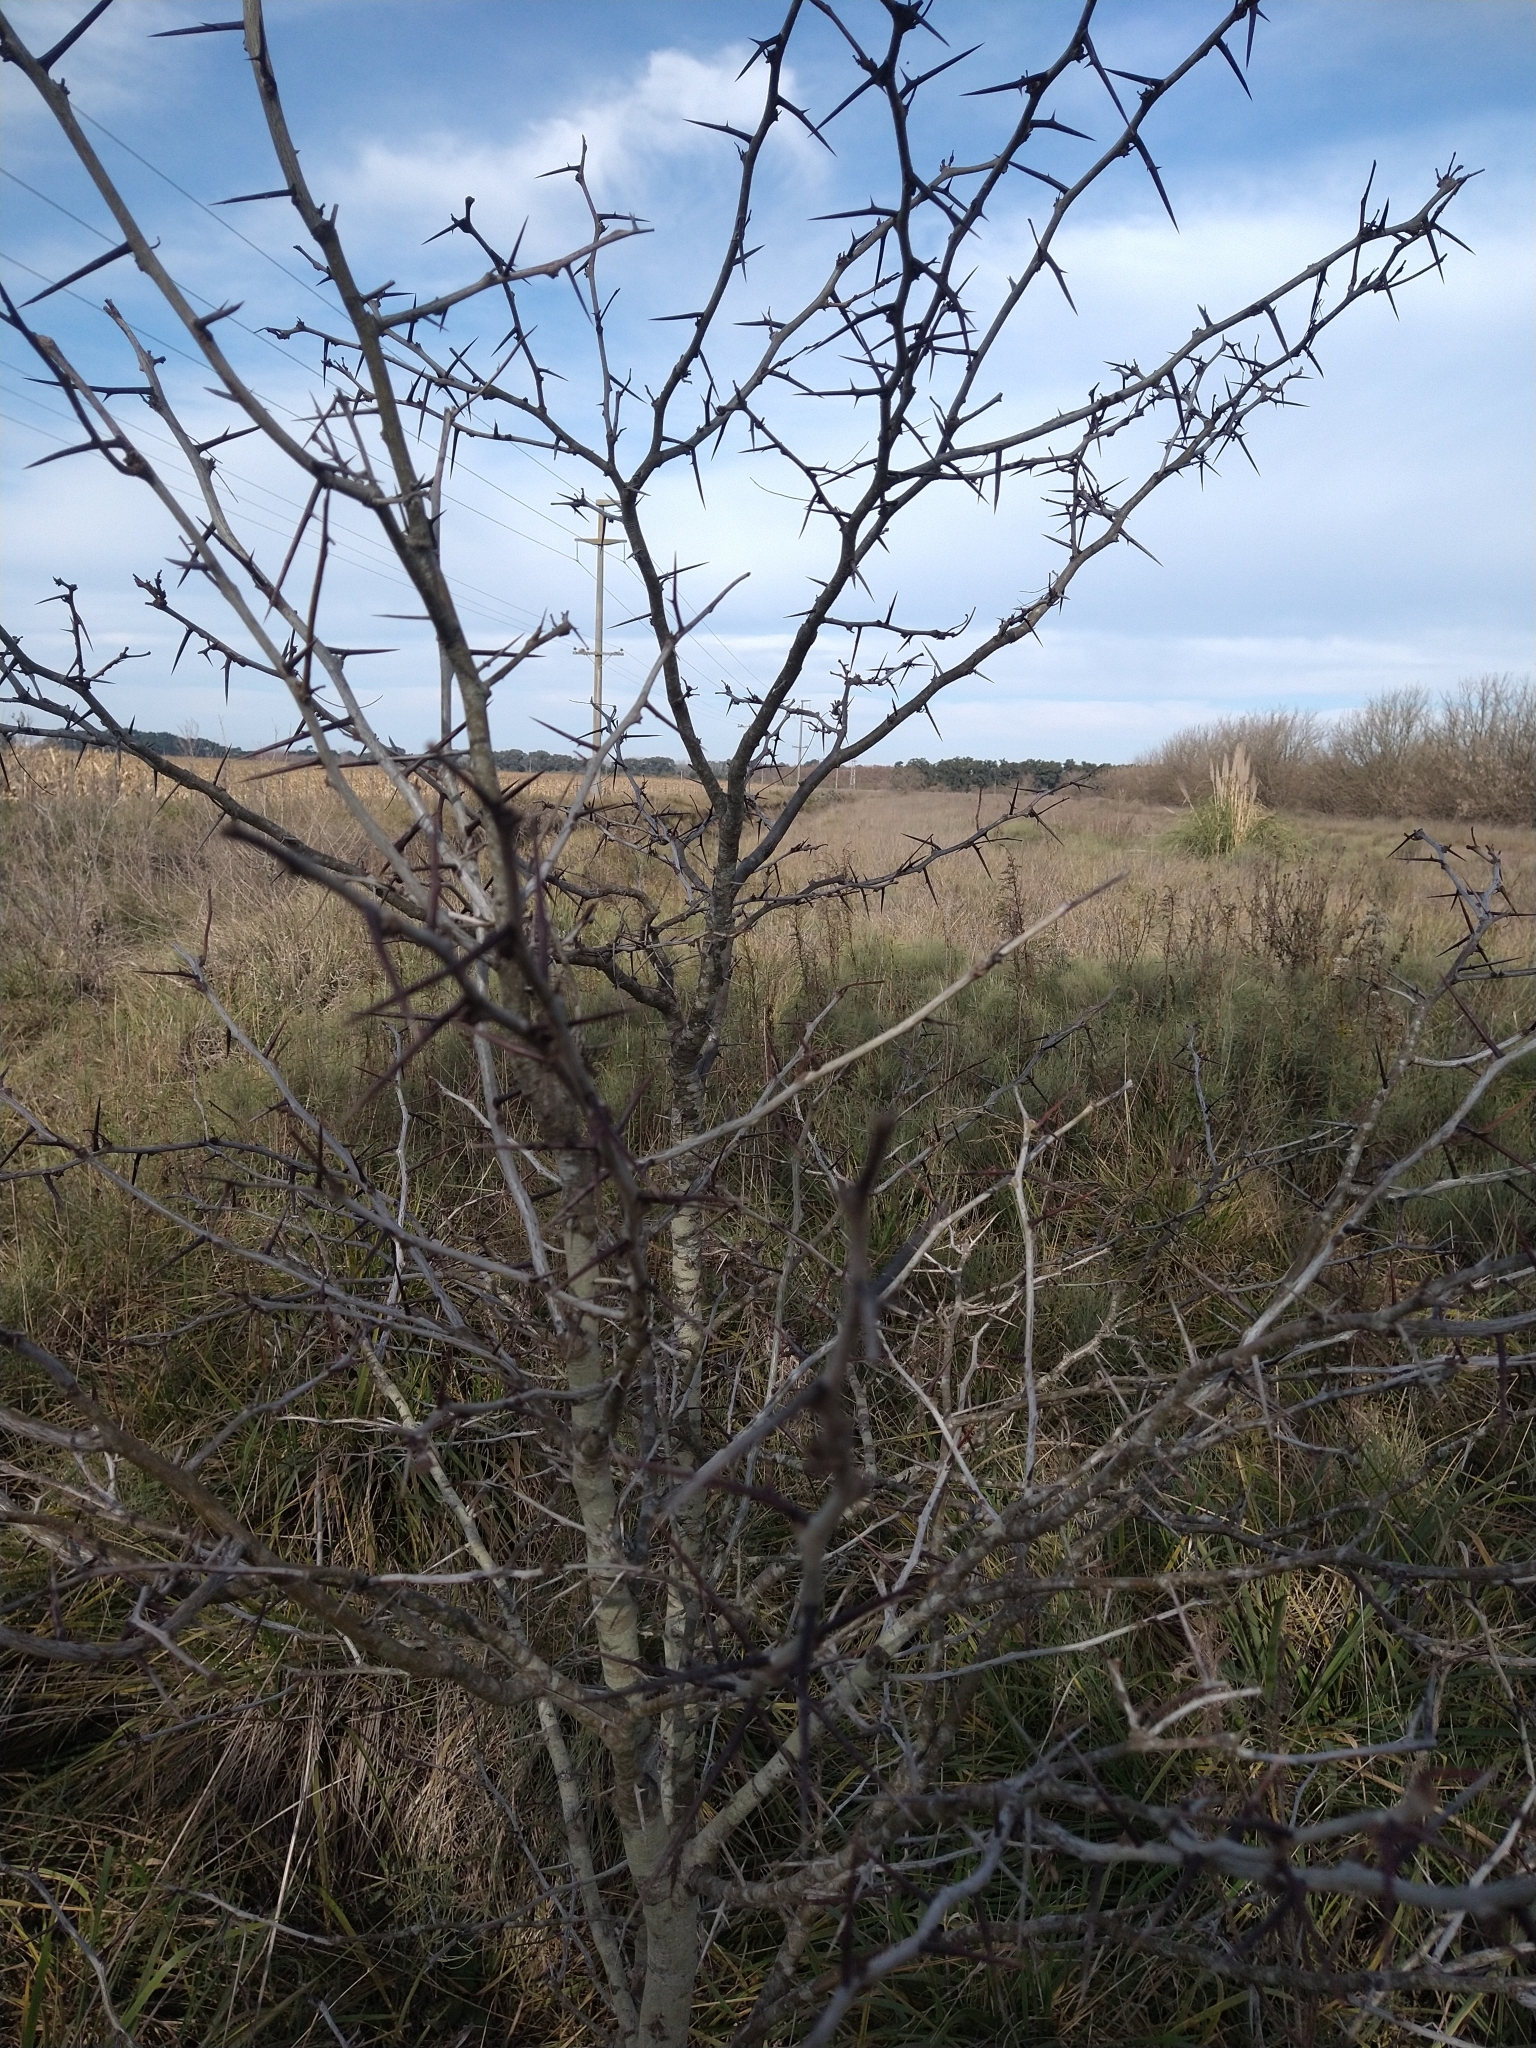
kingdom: Plantae
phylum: Tracheophyta
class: Magnoliopsida
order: Fabales
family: Fabaceae
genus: Gleditsia
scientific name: Gleditsia triacanthos
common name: Common honeylocust
